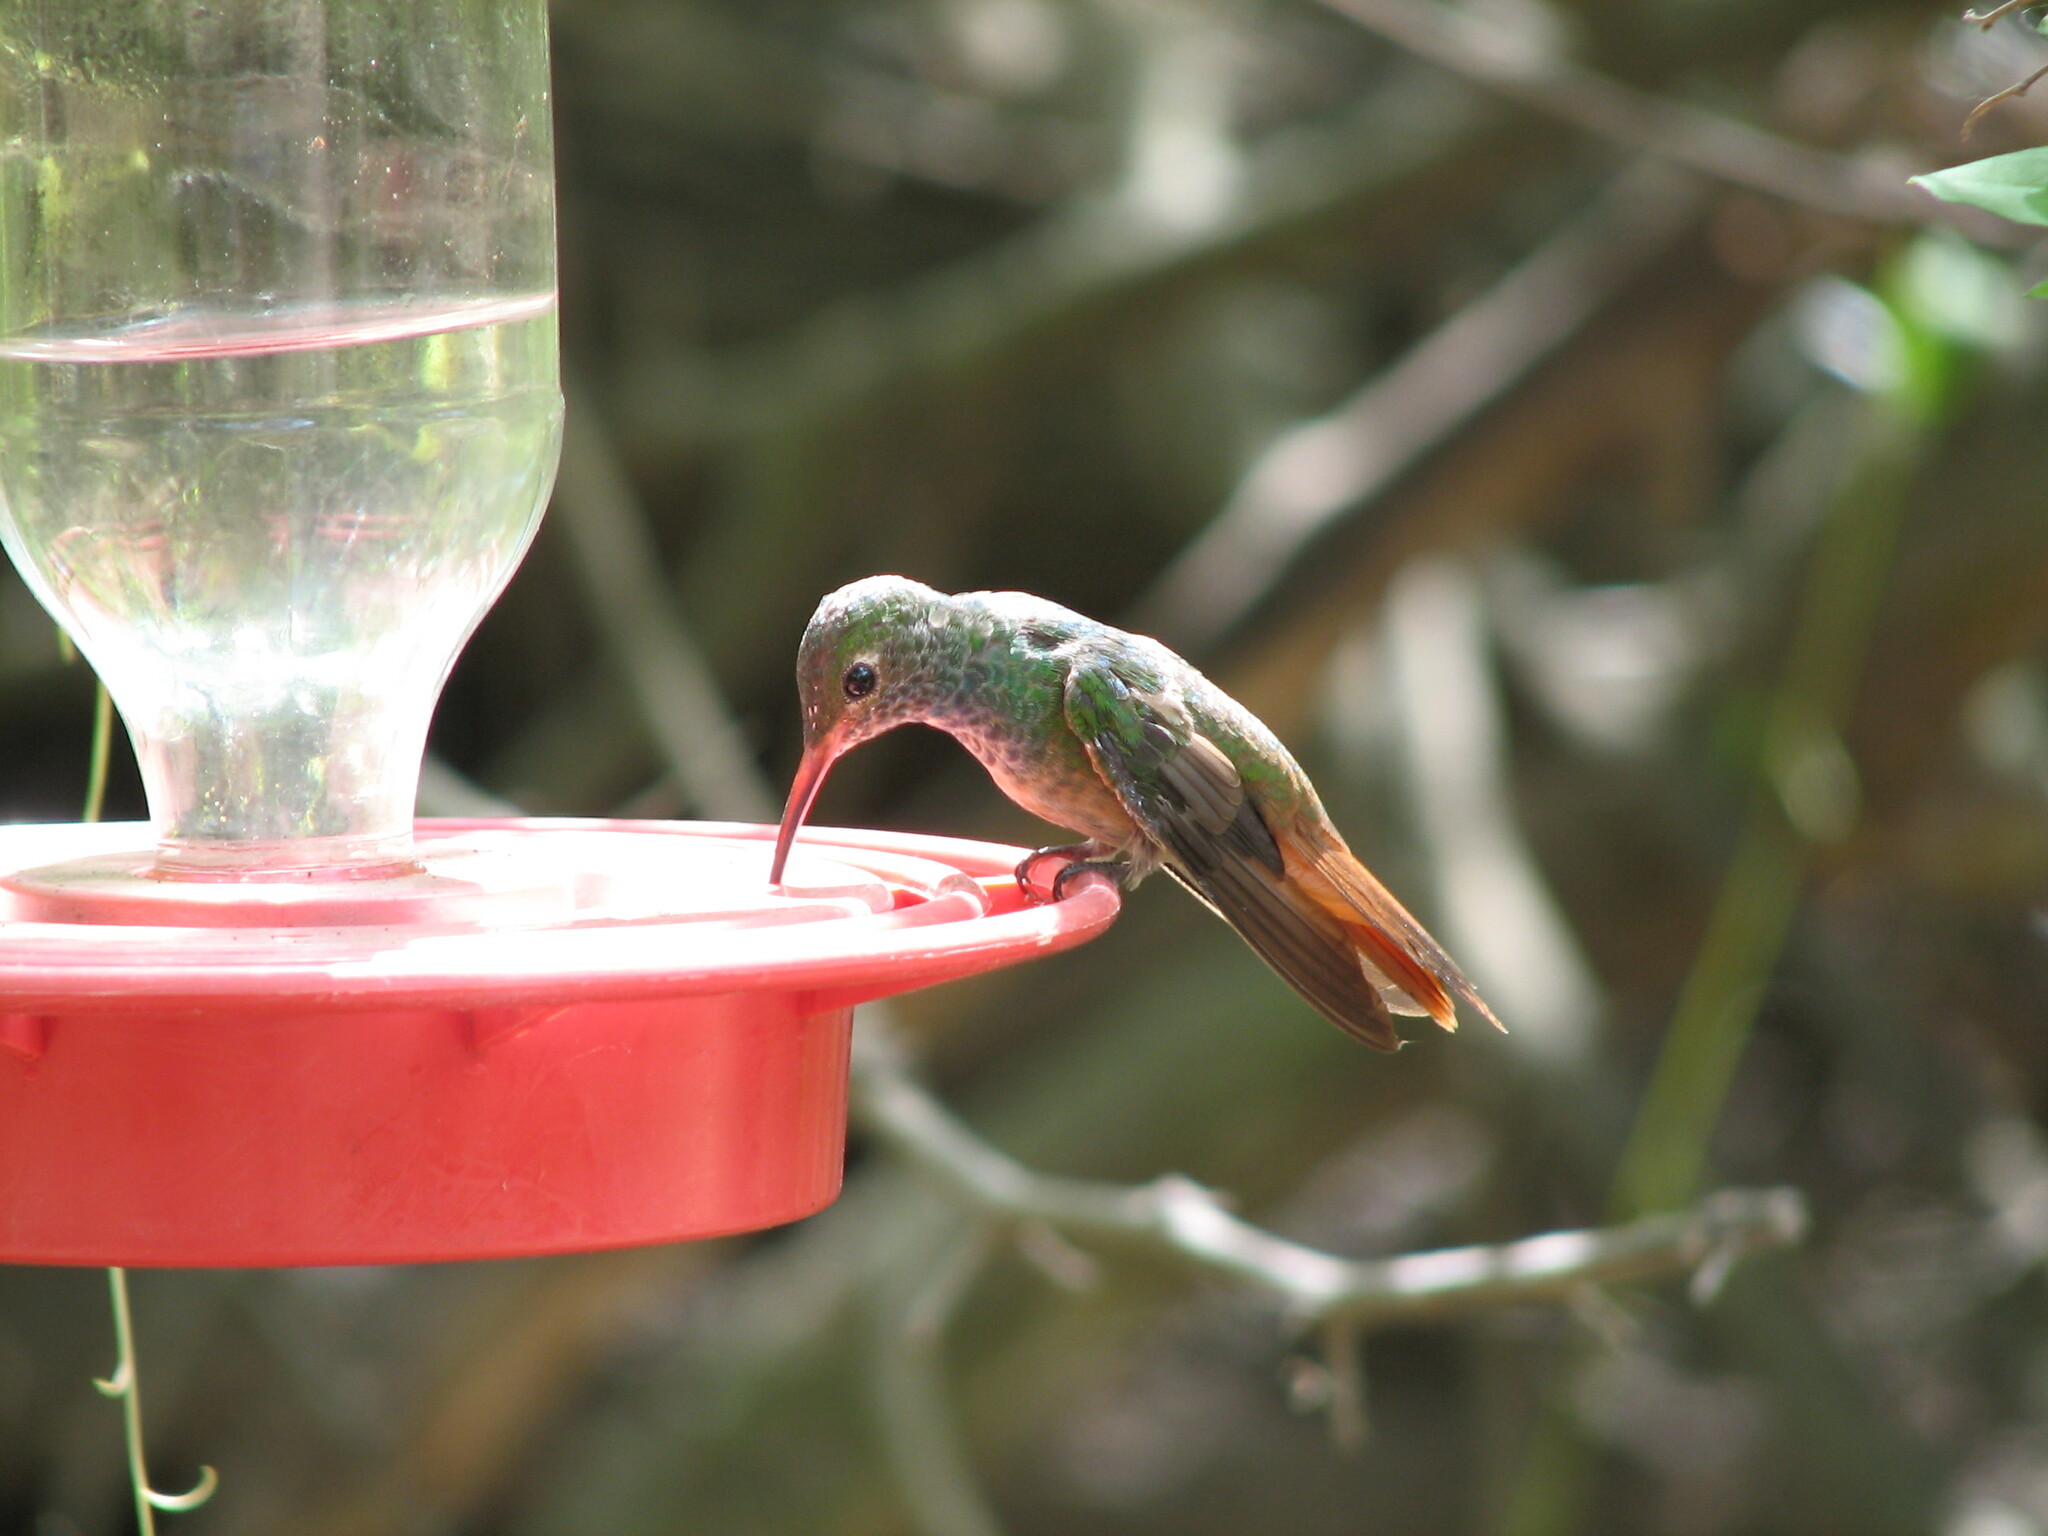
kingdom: Animalia
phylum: Chordata
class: Aves
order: Apodiformes
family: Trochilidae
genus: Amazilia
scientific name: Amazilia yucatanensis
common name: Buff-bellied hummingbird
